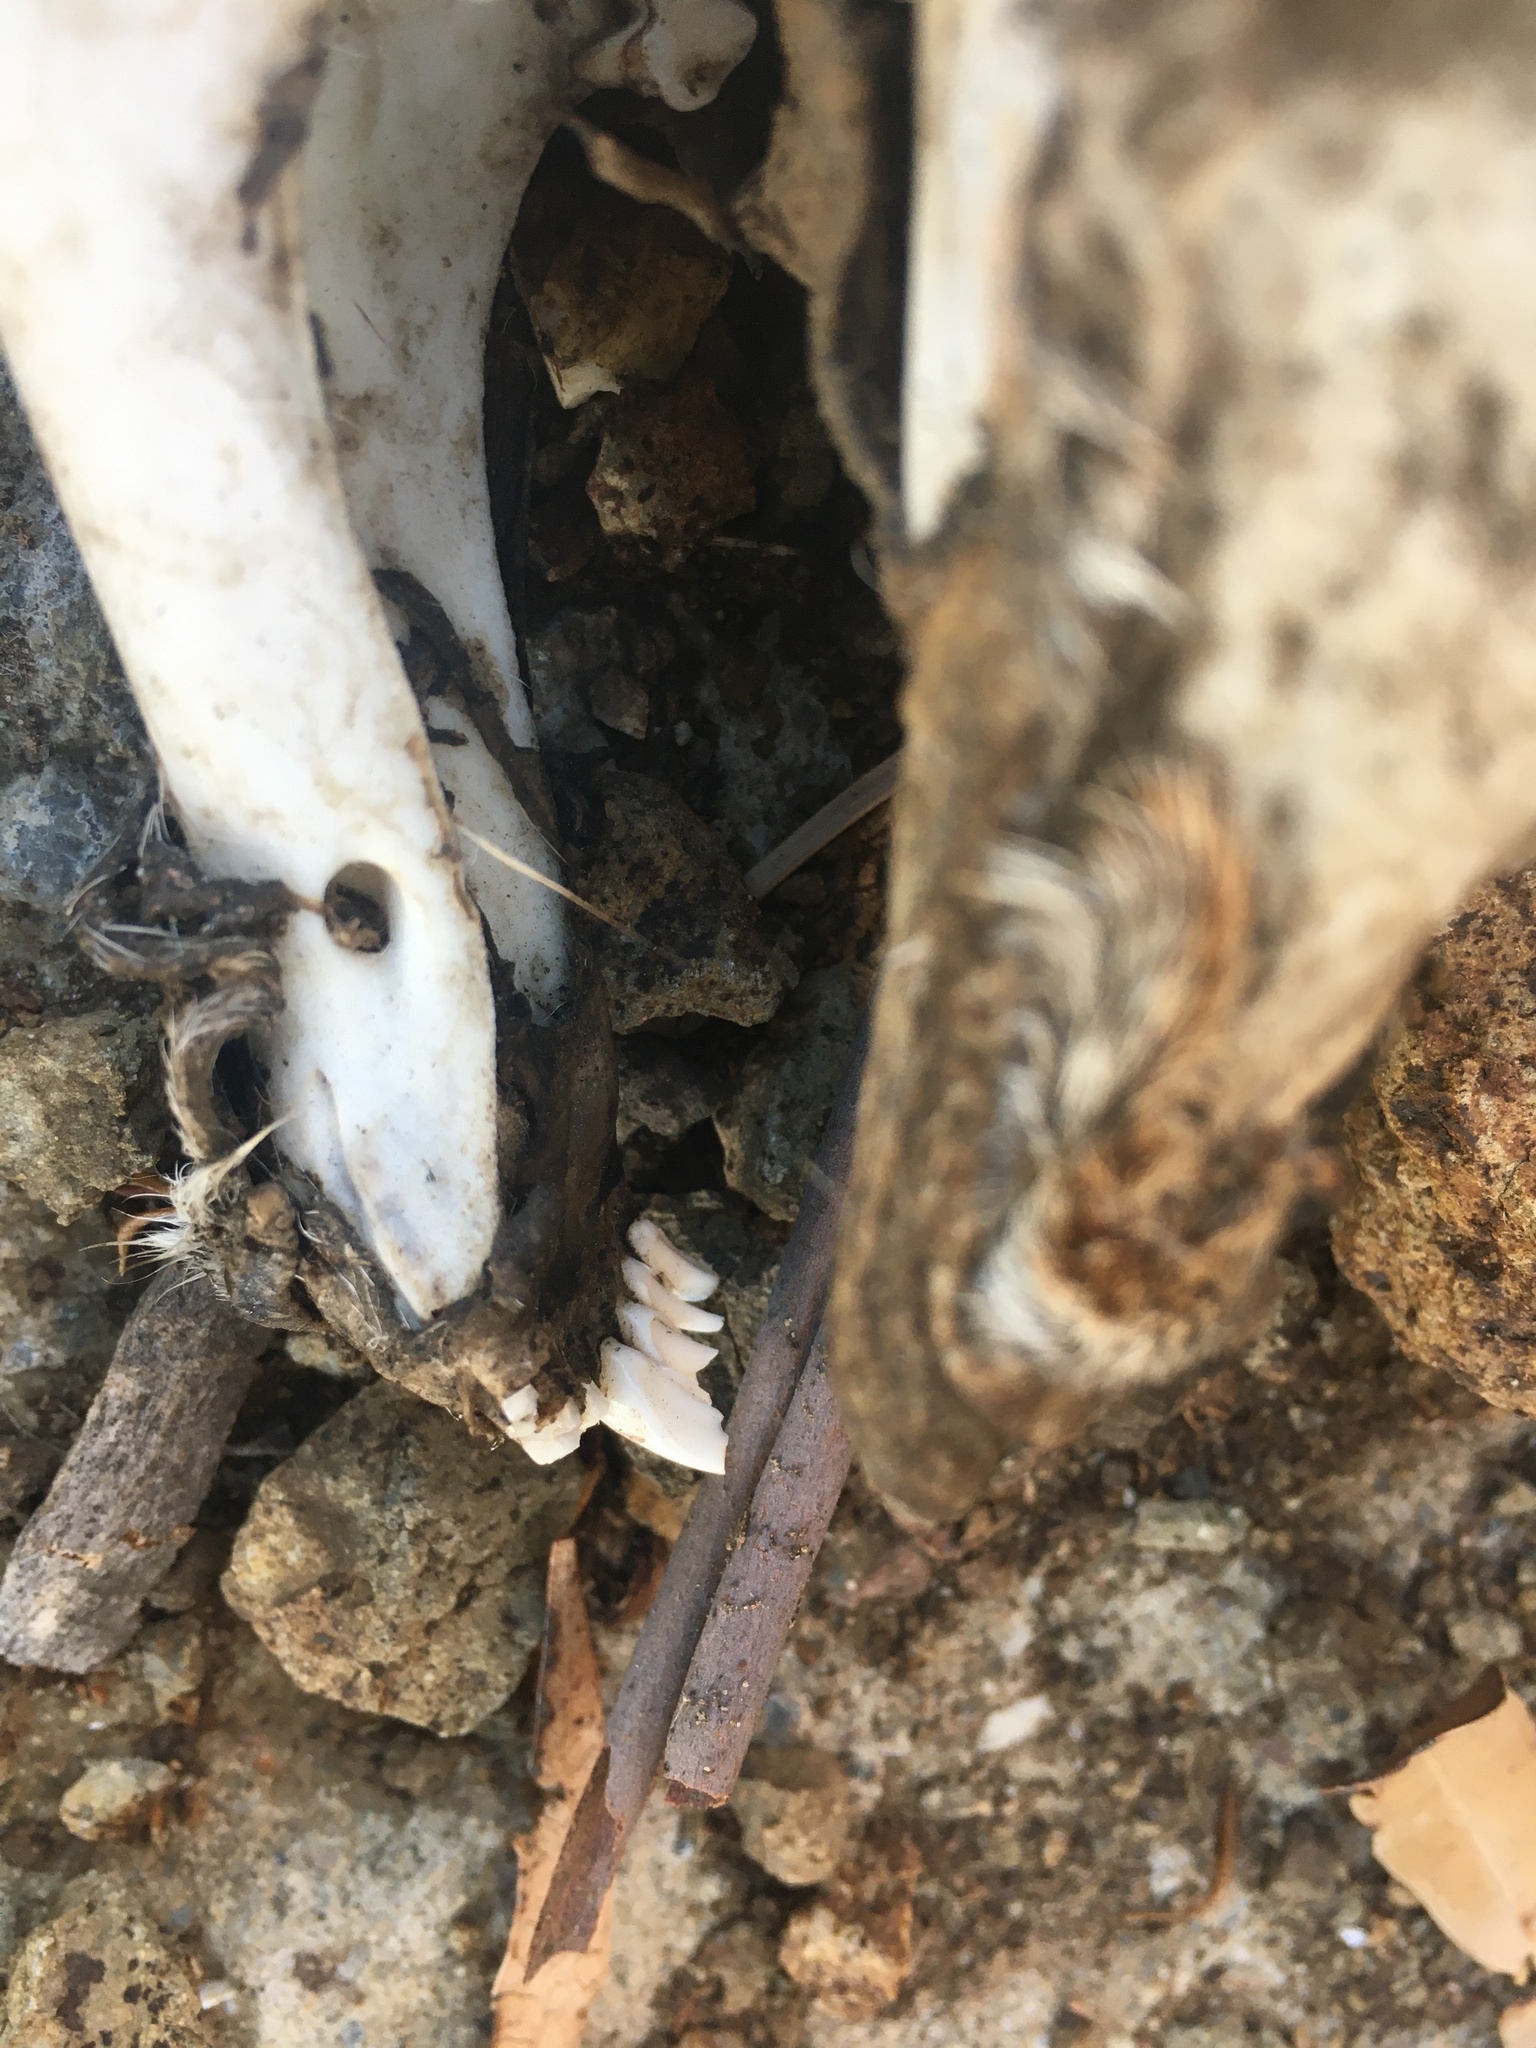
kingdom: Animalia
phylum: Chordata
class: Mammalia
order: Artiodactyla
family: Cervidae
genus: Odocoileus
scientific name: Odocoileus hemionus
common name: Mule deer
